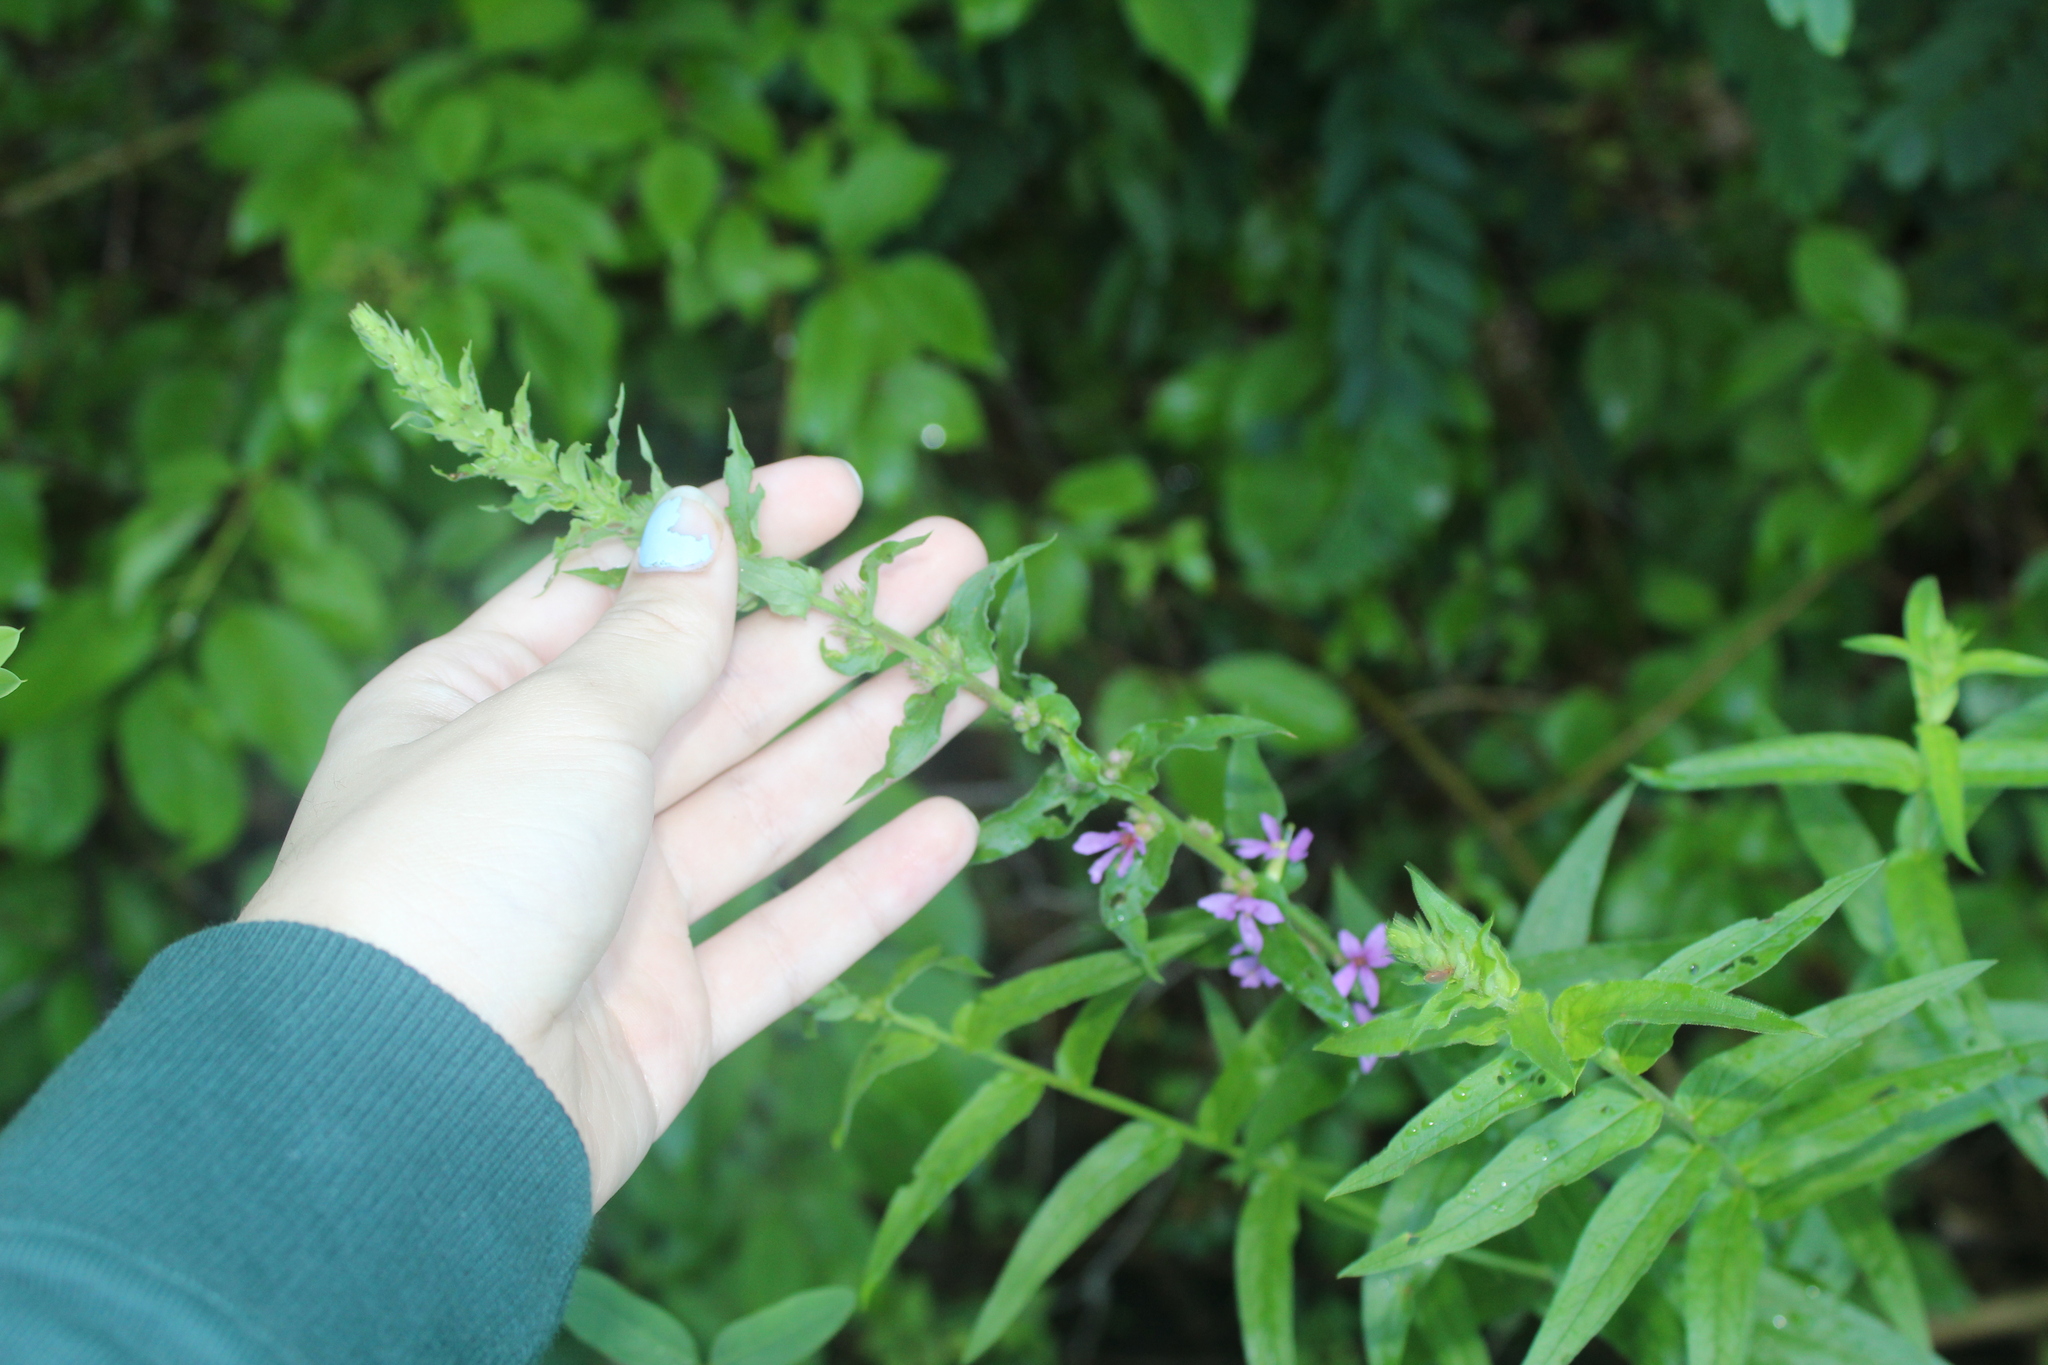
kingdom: Plantae
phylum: Tracheophyta
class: Magnoliopsida
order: Myrtales
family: Lythraceae
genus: Lythrum
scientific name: Lythrum salicaria
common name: Purple loosestrife
